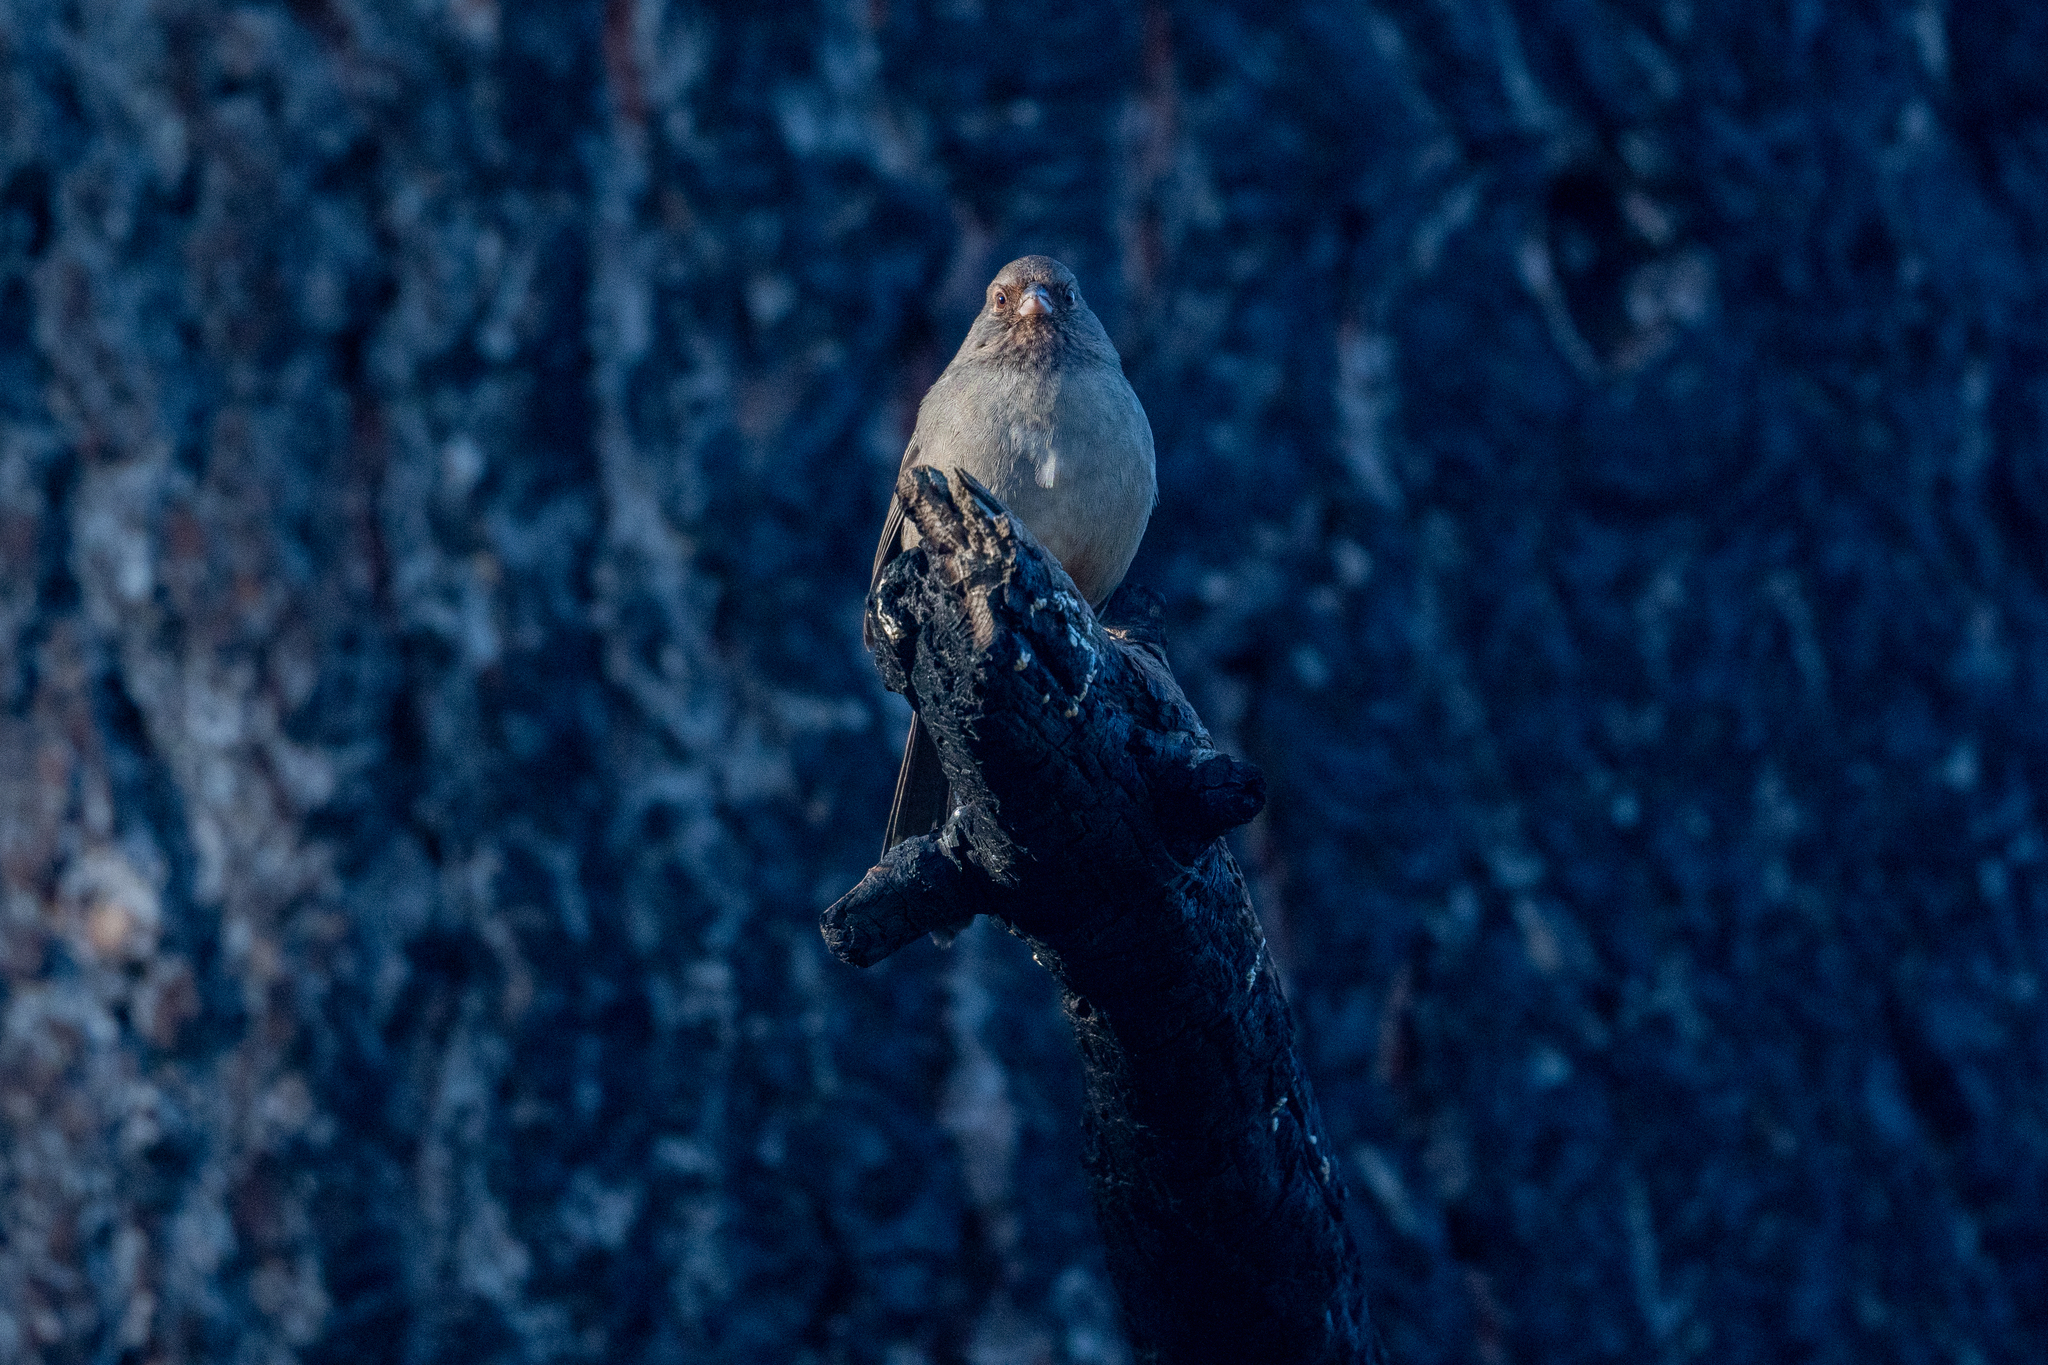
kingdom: Animalia
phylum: Chordata
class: Aves
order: Passeriformes
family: Passerellidae
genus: Melozone
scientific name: Melozone crissalis
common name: California towhee
